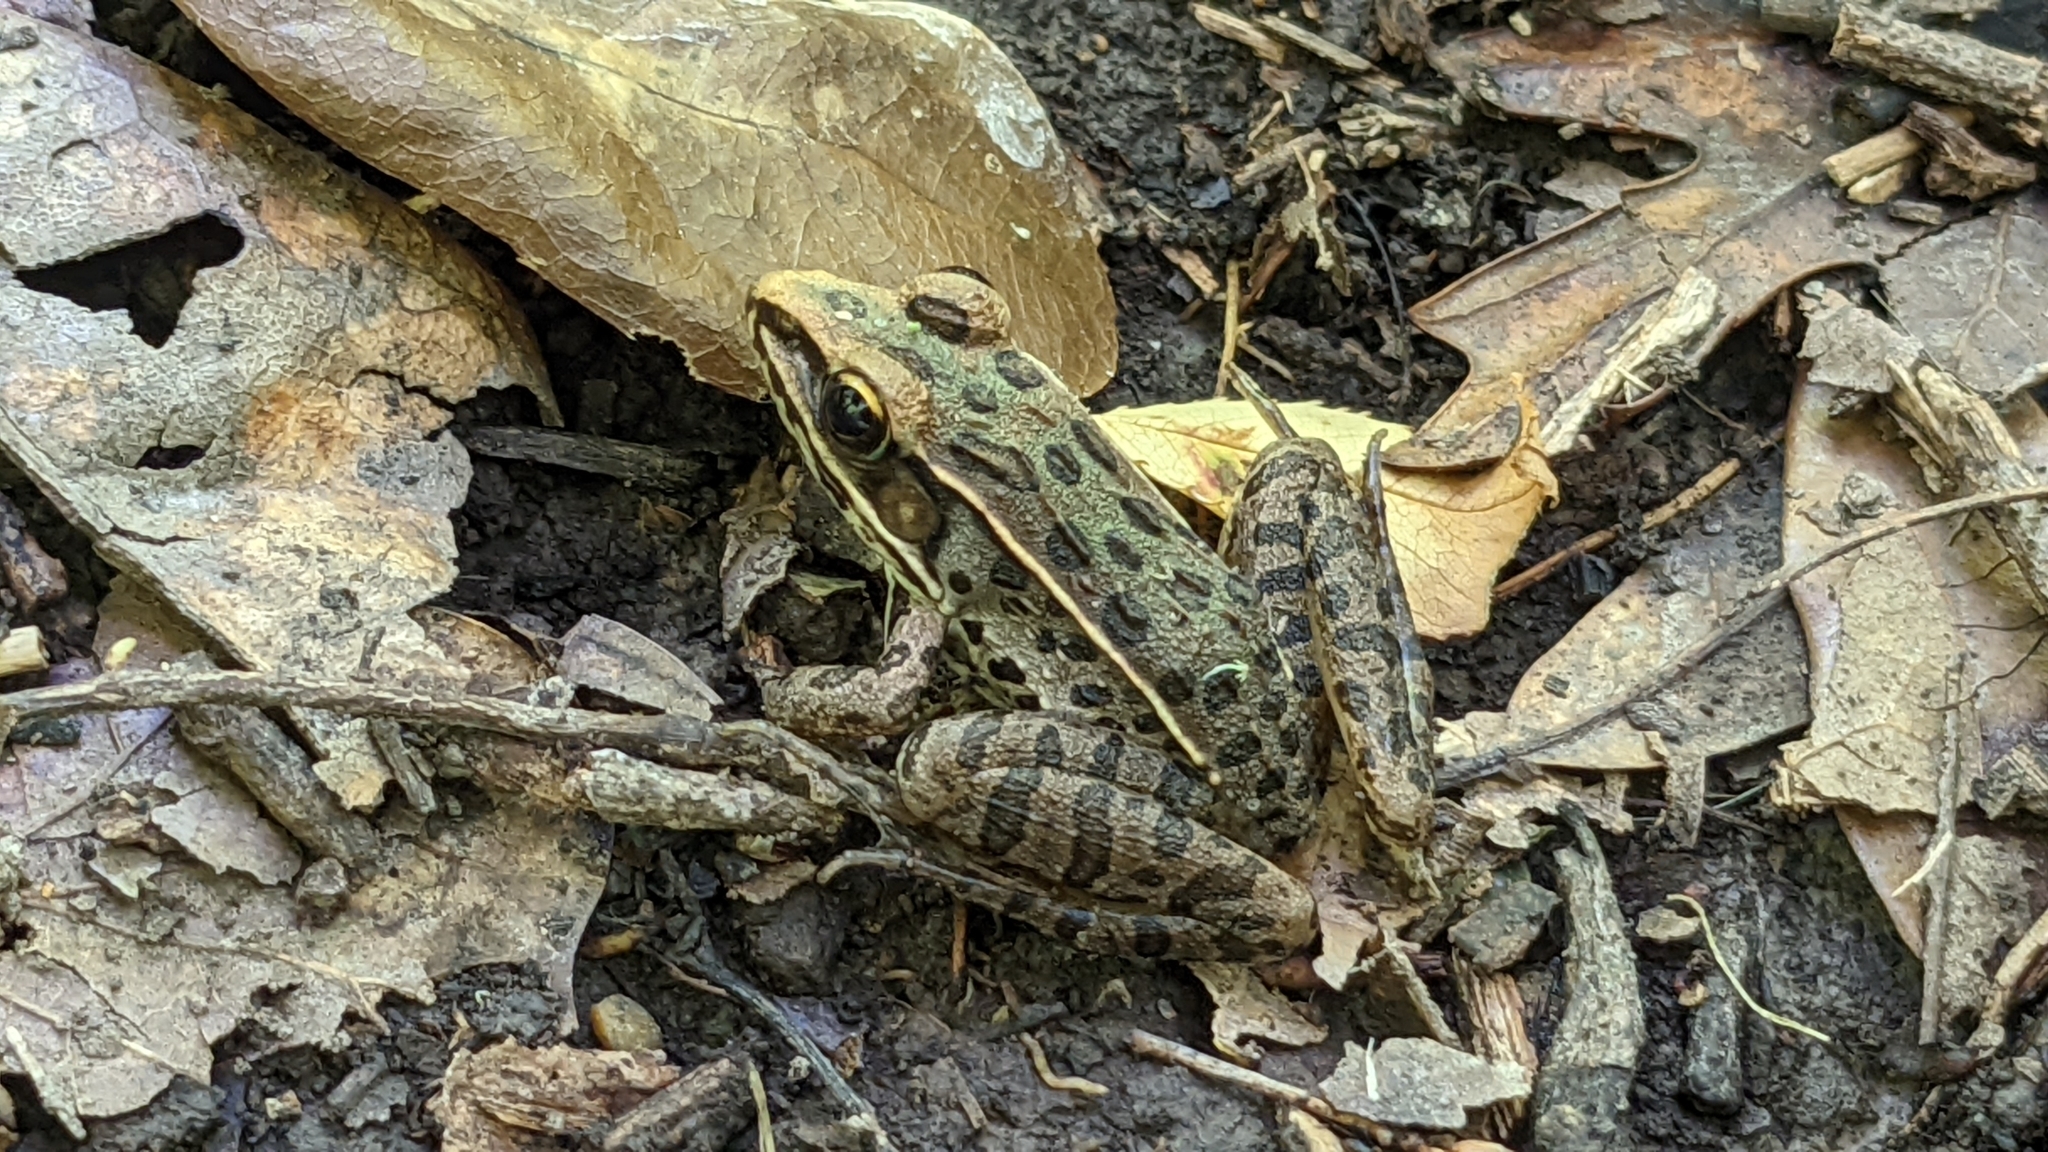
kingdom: Animalia
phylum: Chordata
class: Amphibia
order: Anura
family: Ranidae
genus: Lithobates
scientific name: Lithobates sphenocephalus
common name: Southern leopard frog
